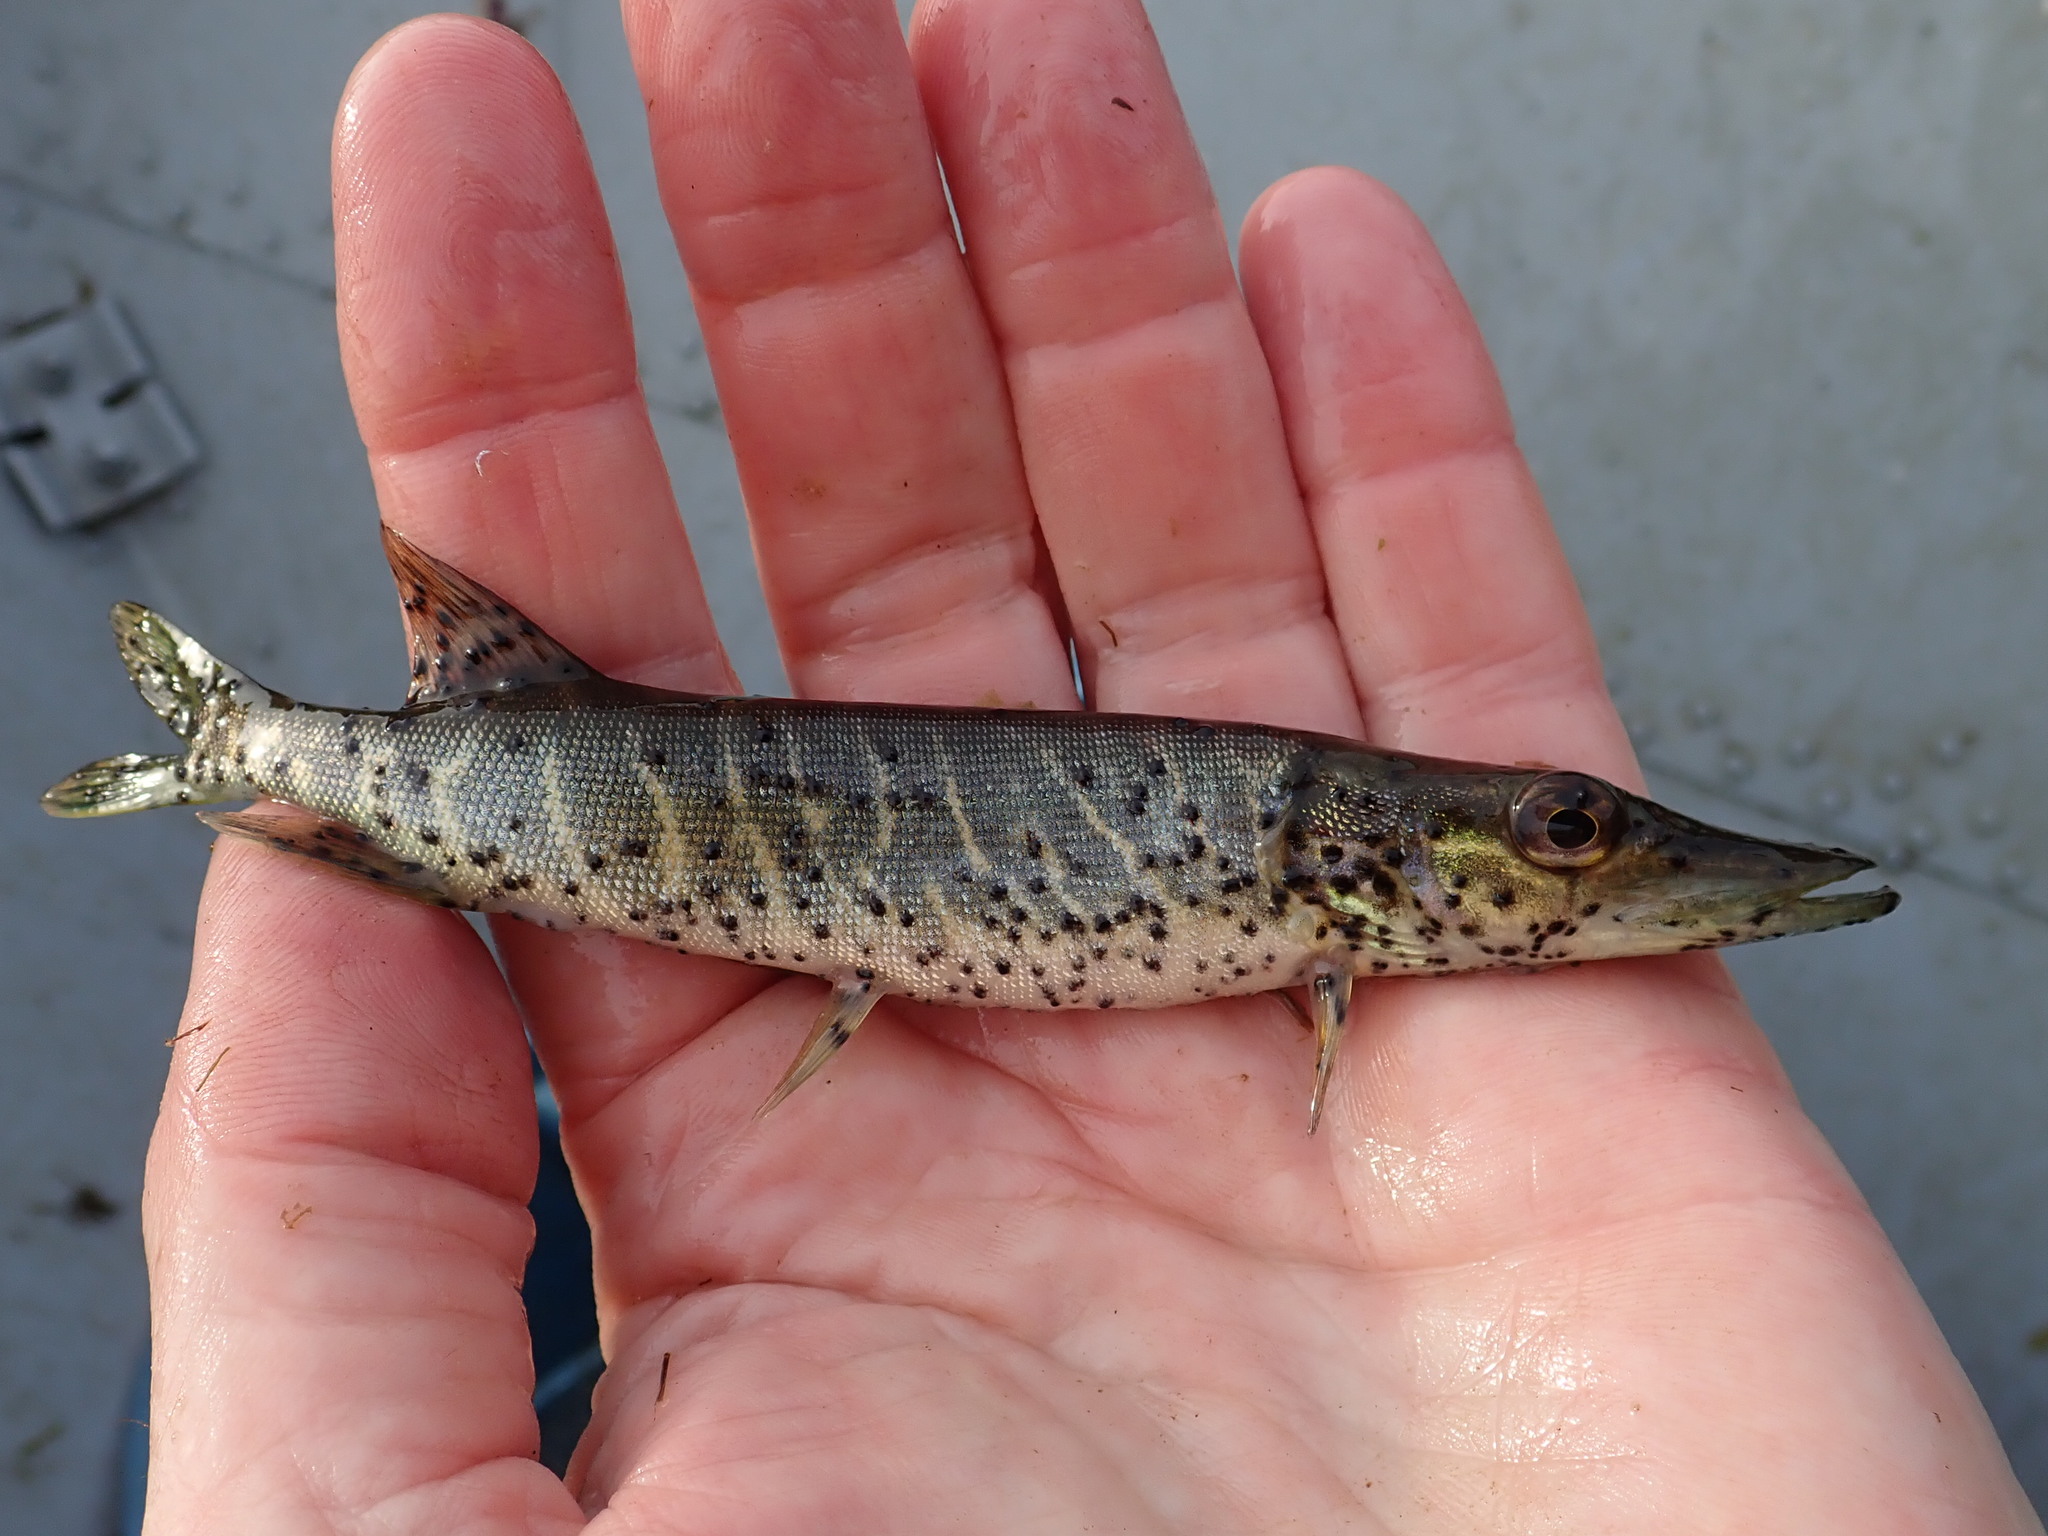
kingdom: Animalia
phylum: Chordata
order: Esociformes
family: Esocidae
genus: Esox
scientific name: Esox lucius
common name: Northern pike
